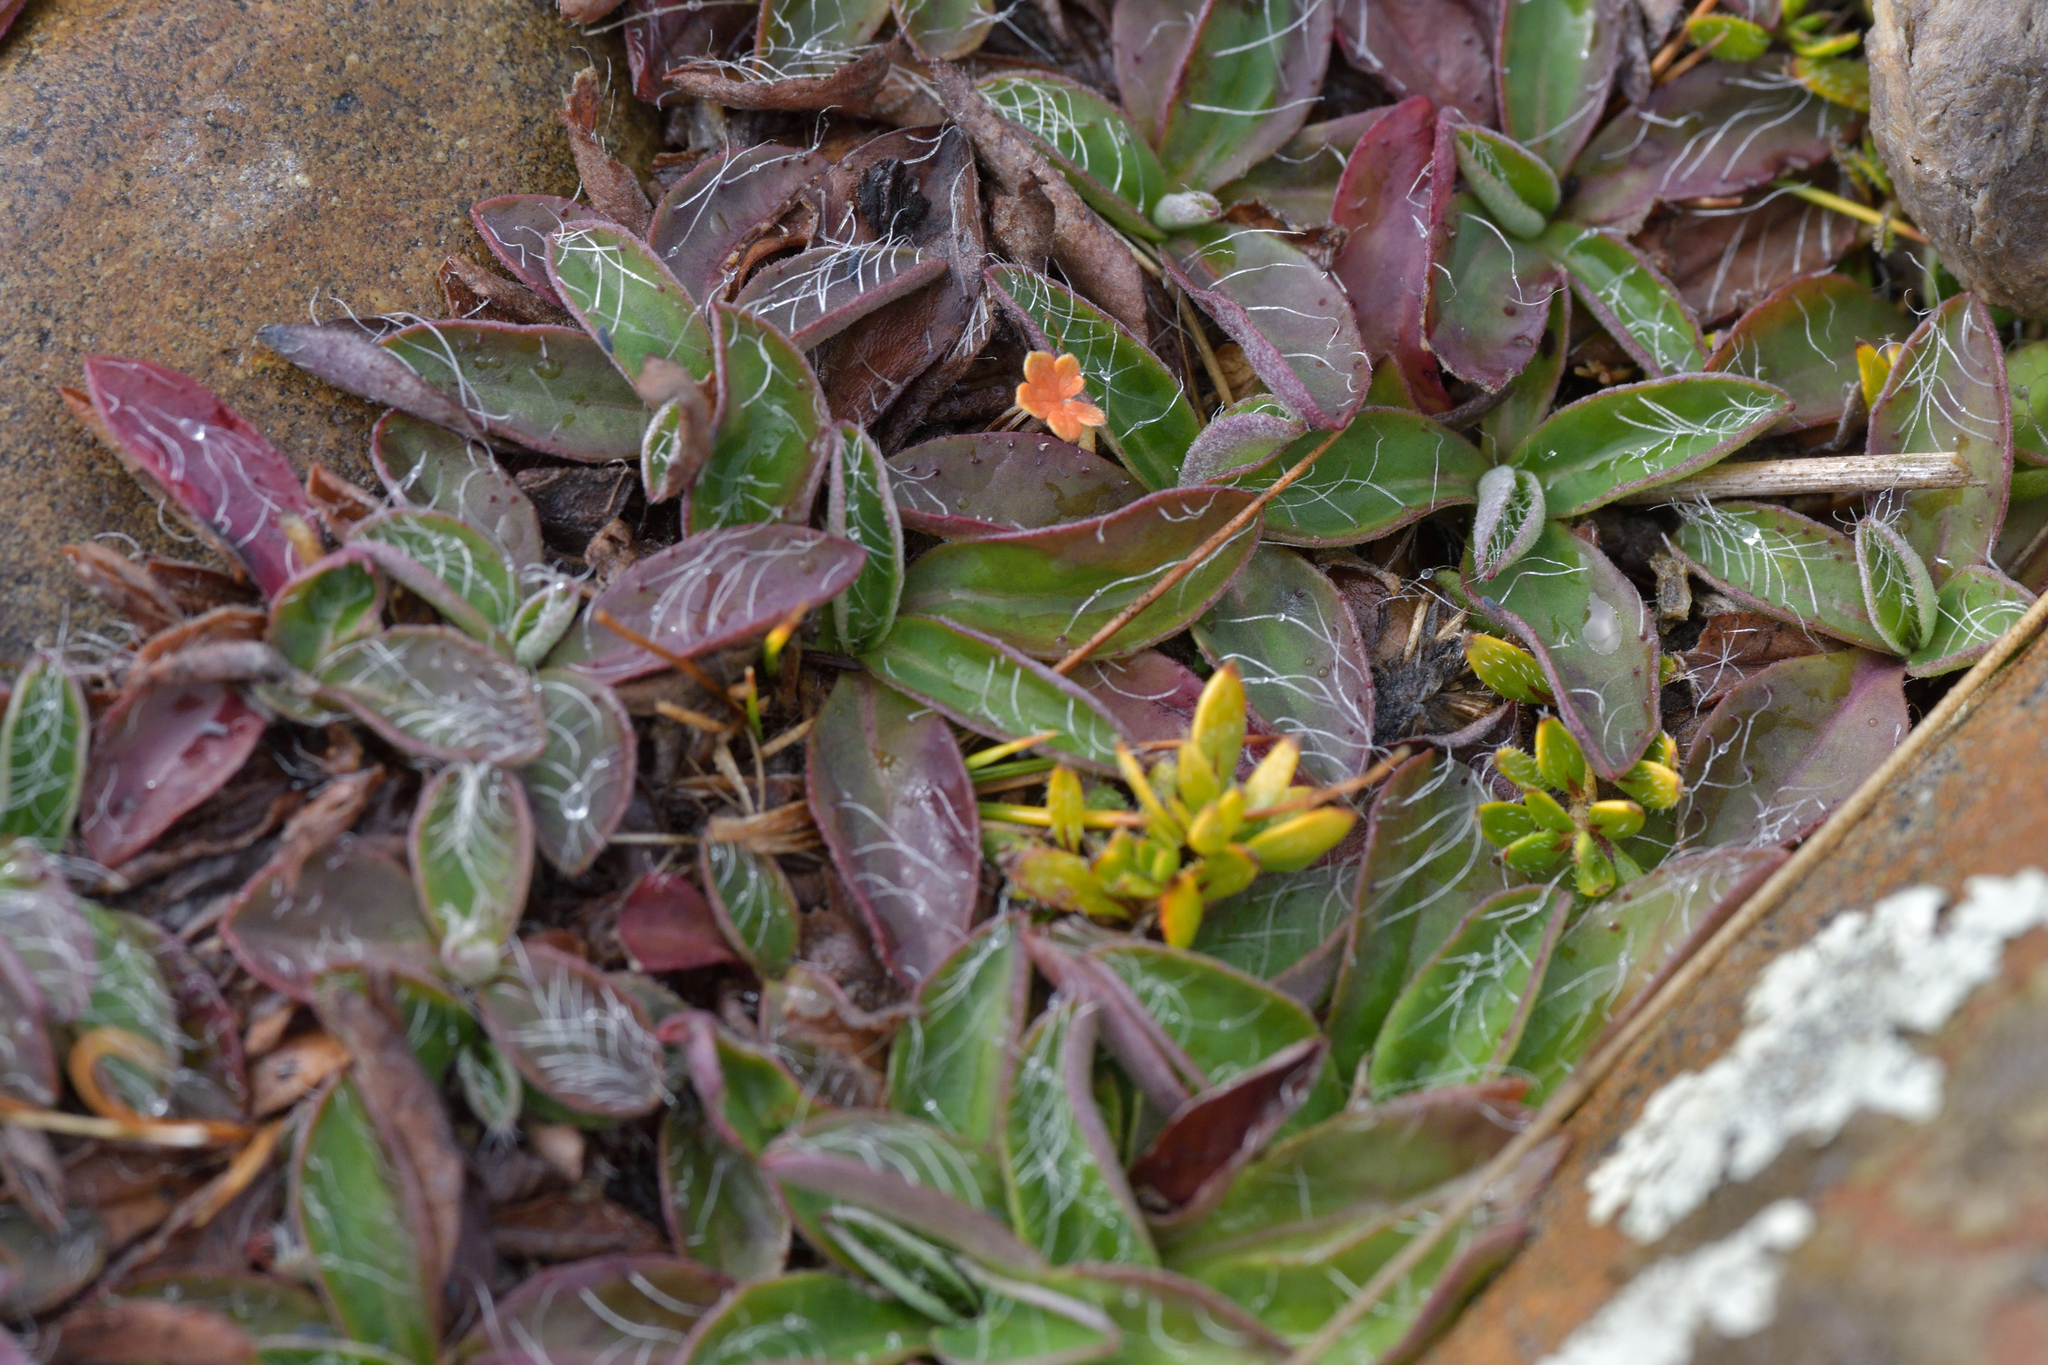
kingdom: Plantae
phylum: Tracheophyta
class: Magnoliopsida
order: Asterales
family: Asteraceae
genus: Pilosella
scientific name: Pilosella officinarum
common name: Mouse-ear hawkweed
